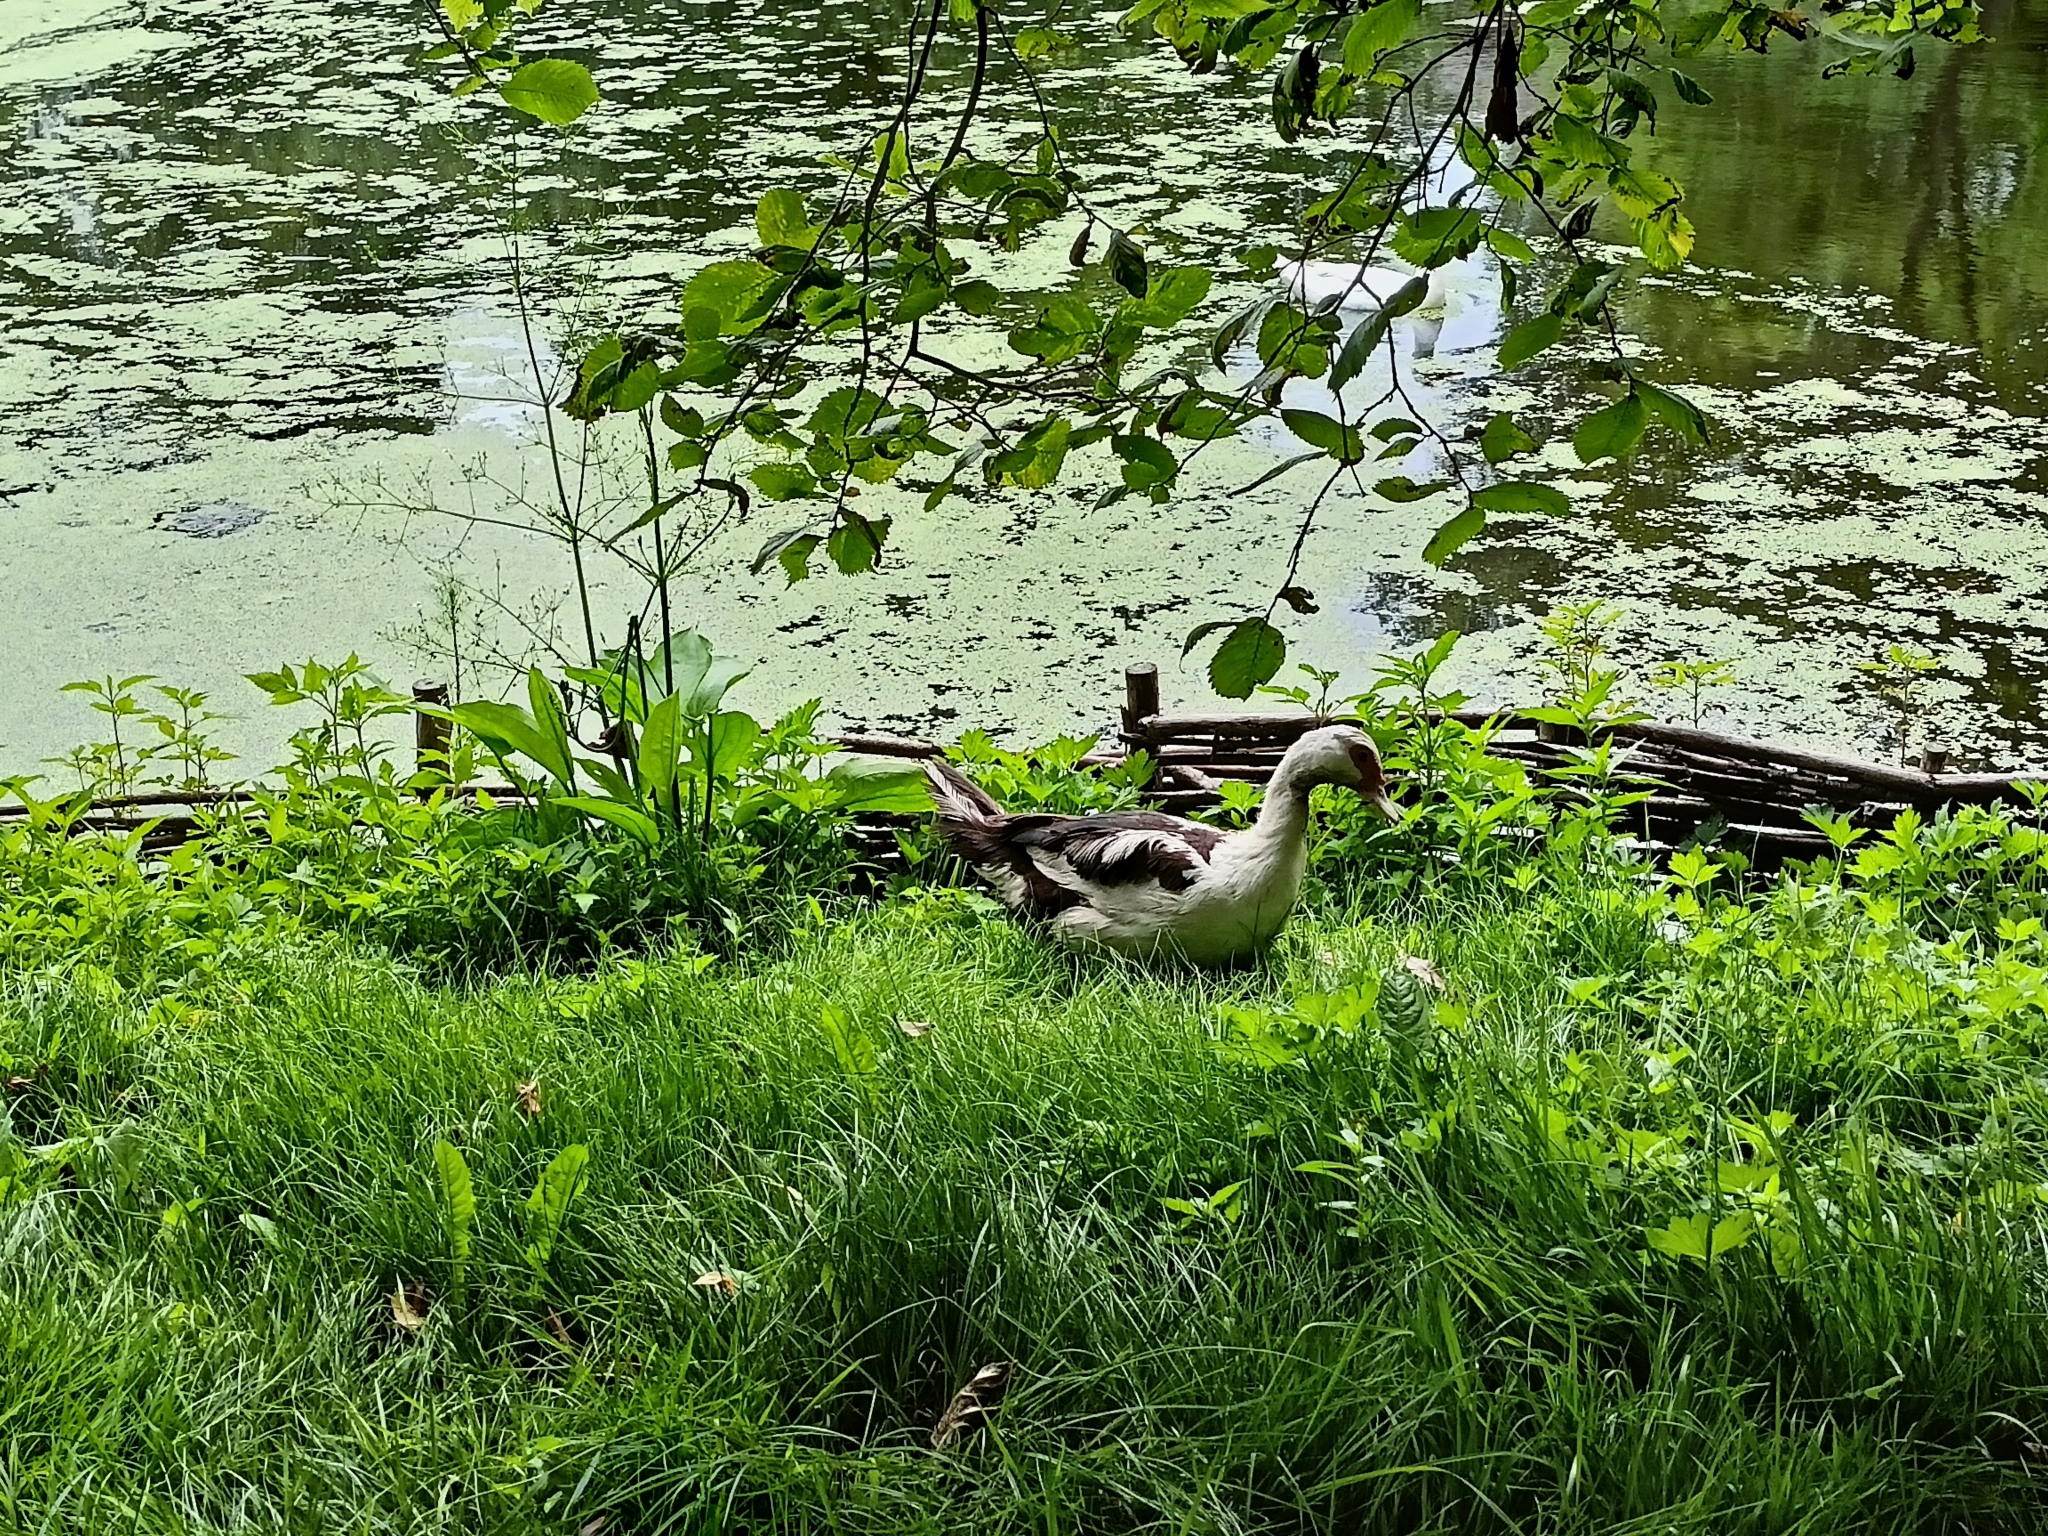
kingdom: Animalia
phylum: Chordata
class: Aves
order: Anseriformes
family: Anatidae
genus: Cairina
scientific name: Cairina moschata
